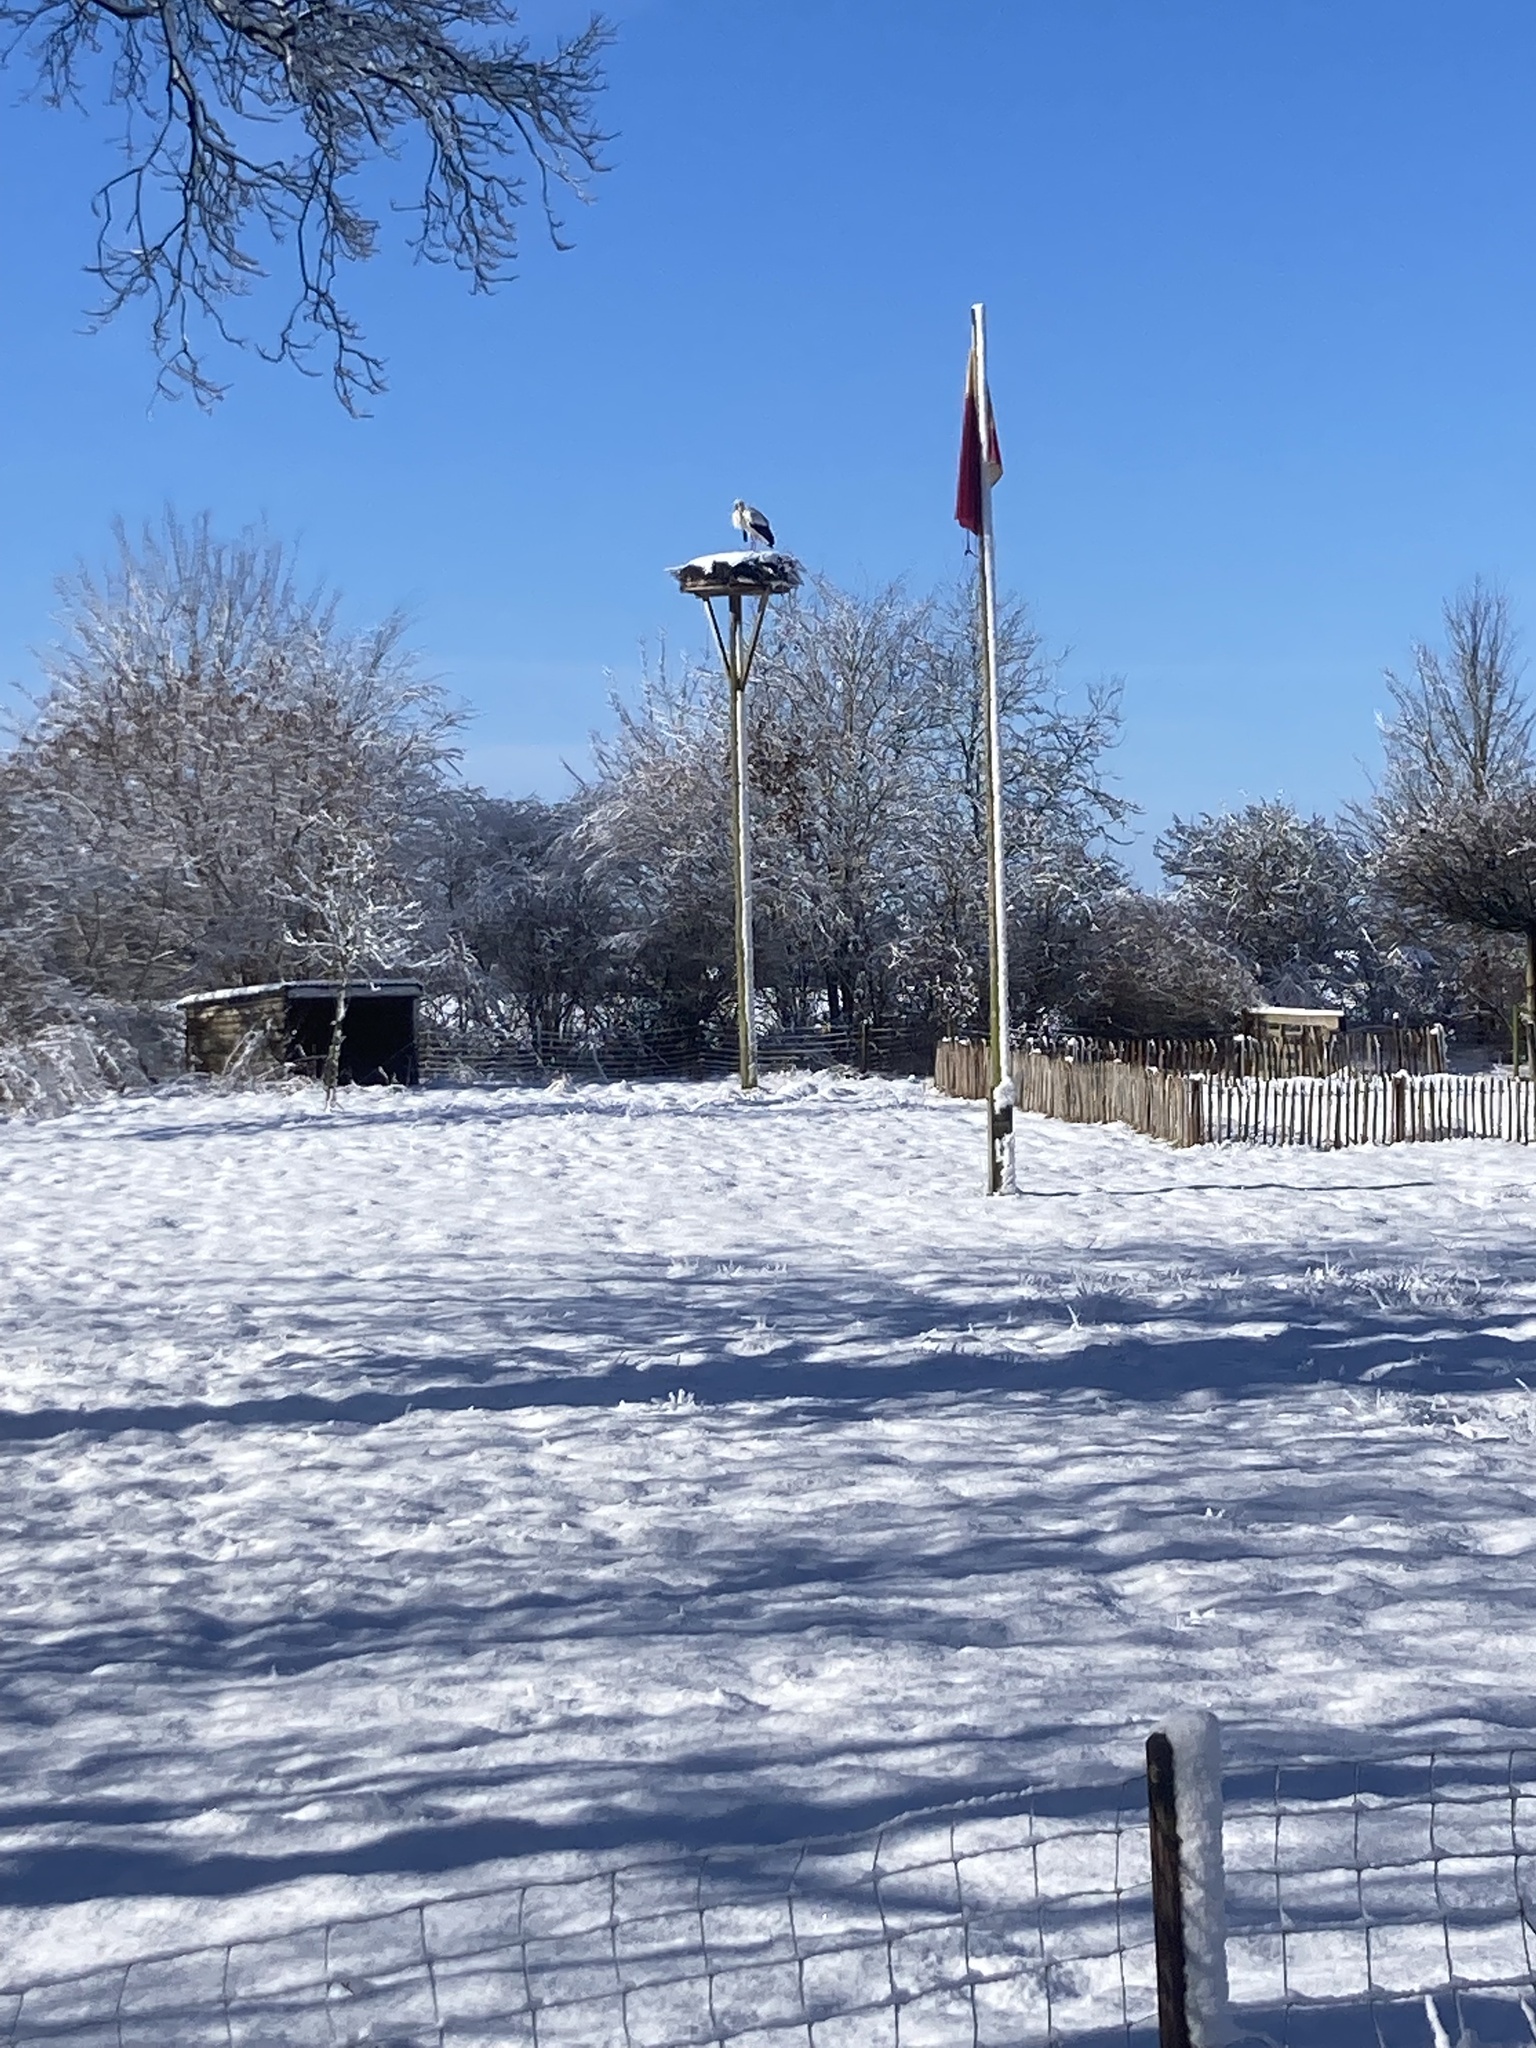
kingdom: Animalia
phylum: Chordata
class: Aves
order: Ciconiiformes
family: Ciconiidae
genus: Ciconia
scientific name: Ciconia ciconia
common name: White stork
